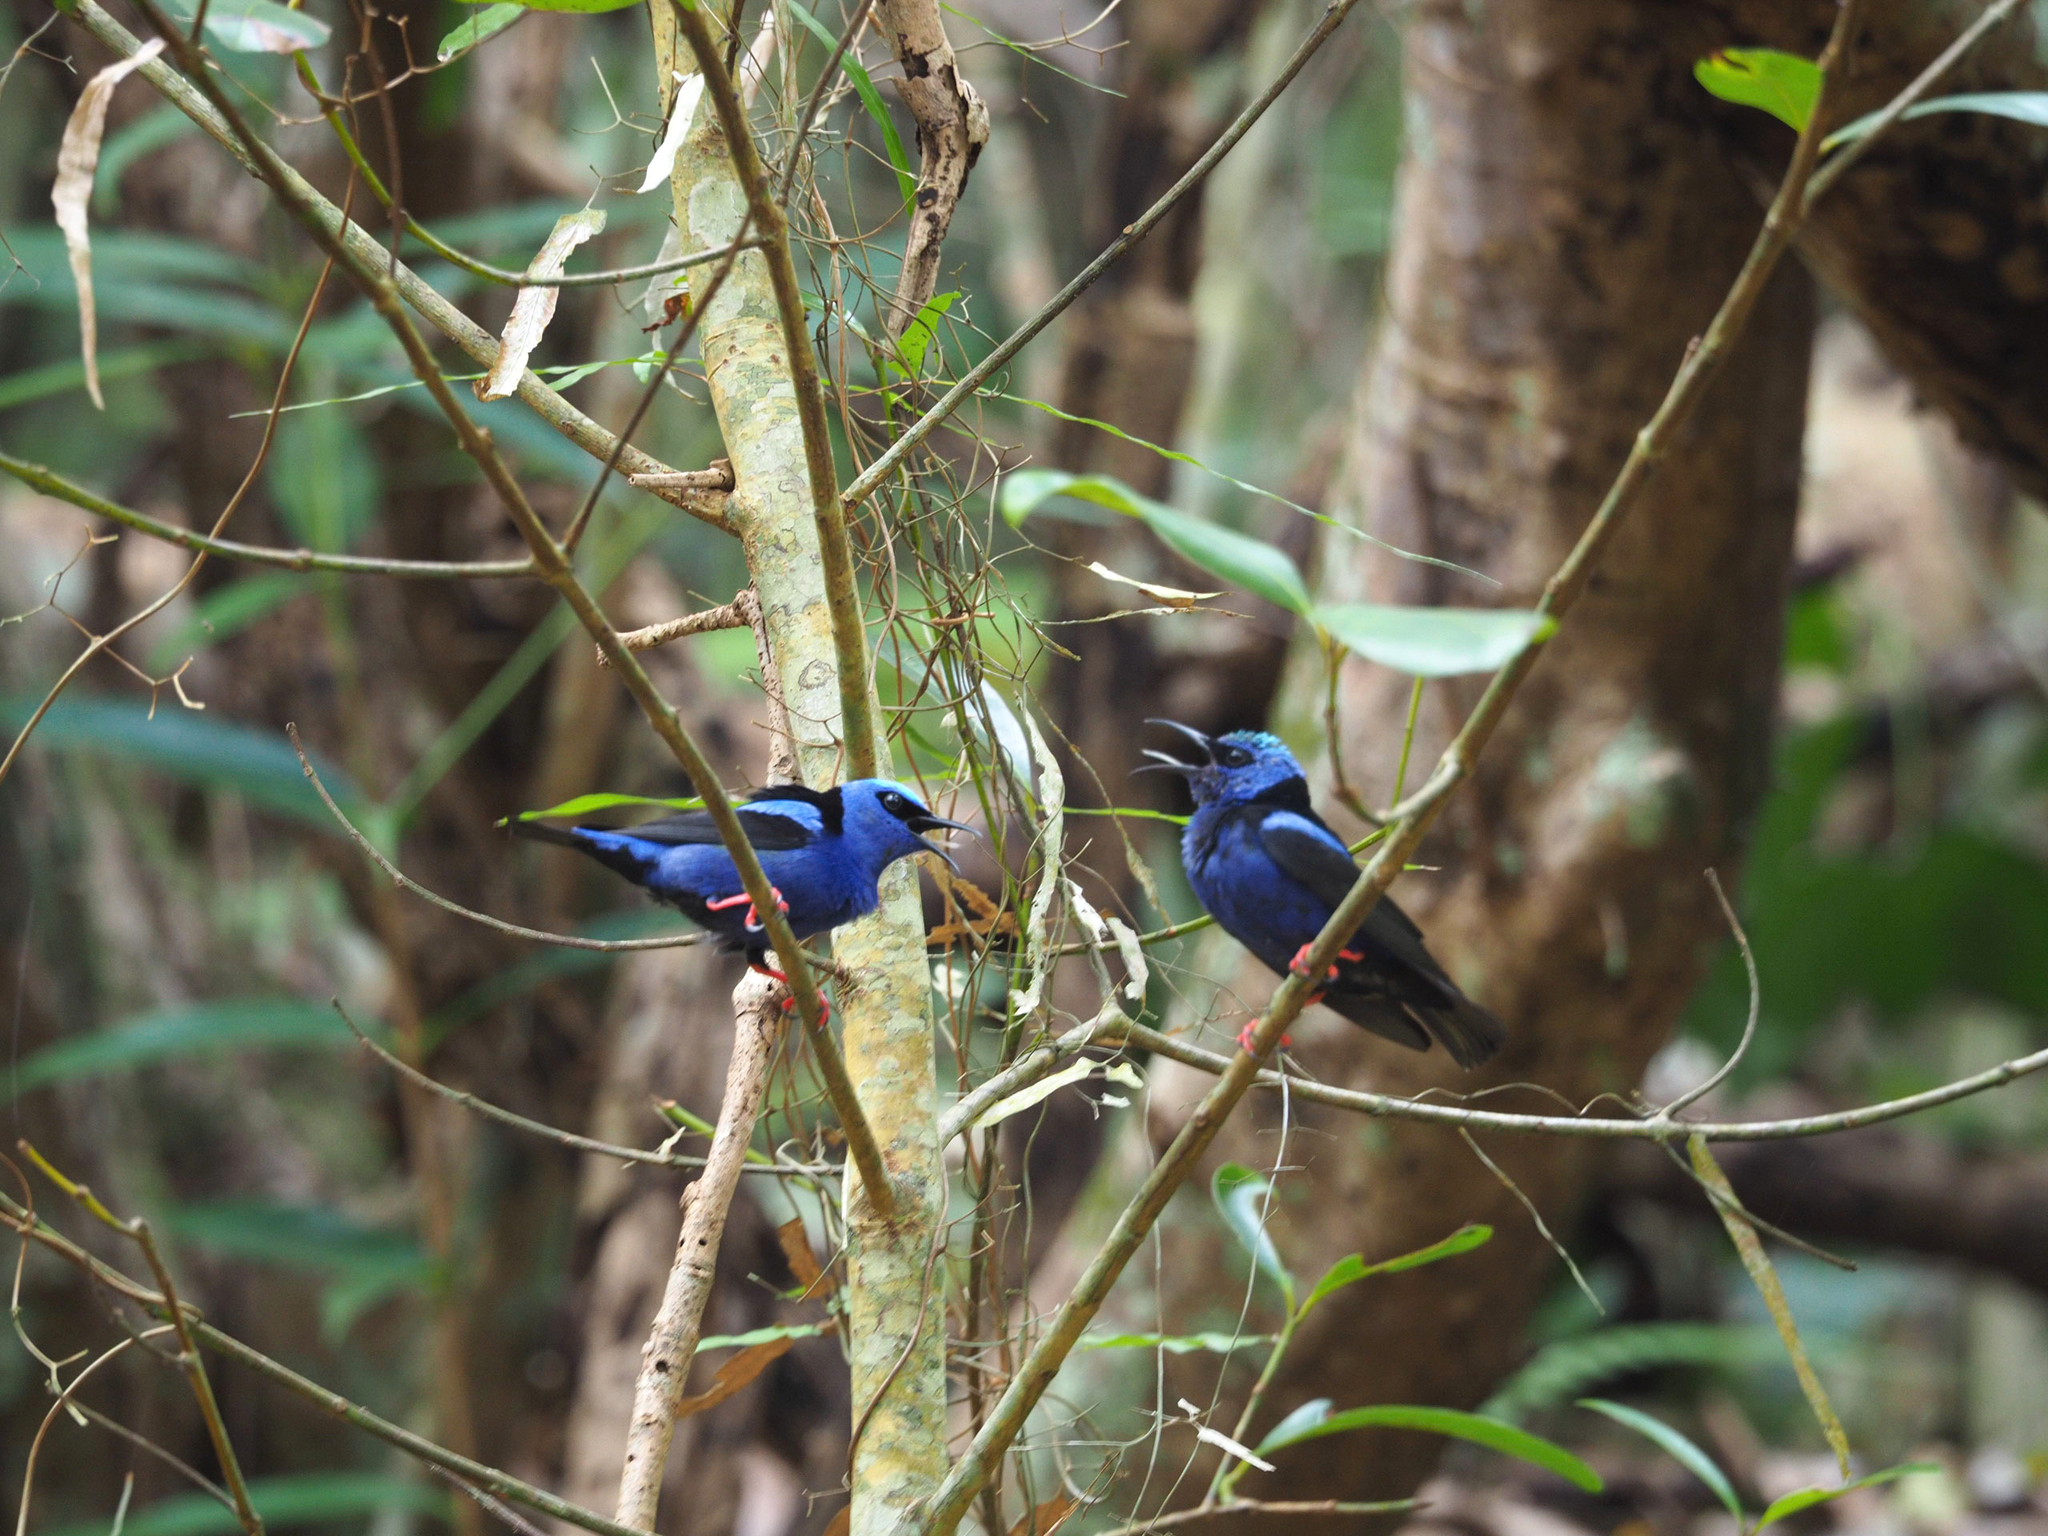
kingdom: Animalia
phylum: Chordata
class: Aves
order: Passeriformes
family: Thraupidae
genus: Cyanerpes
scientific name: Cyanerpes cyaneus
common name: Red-legged honeycreeper
